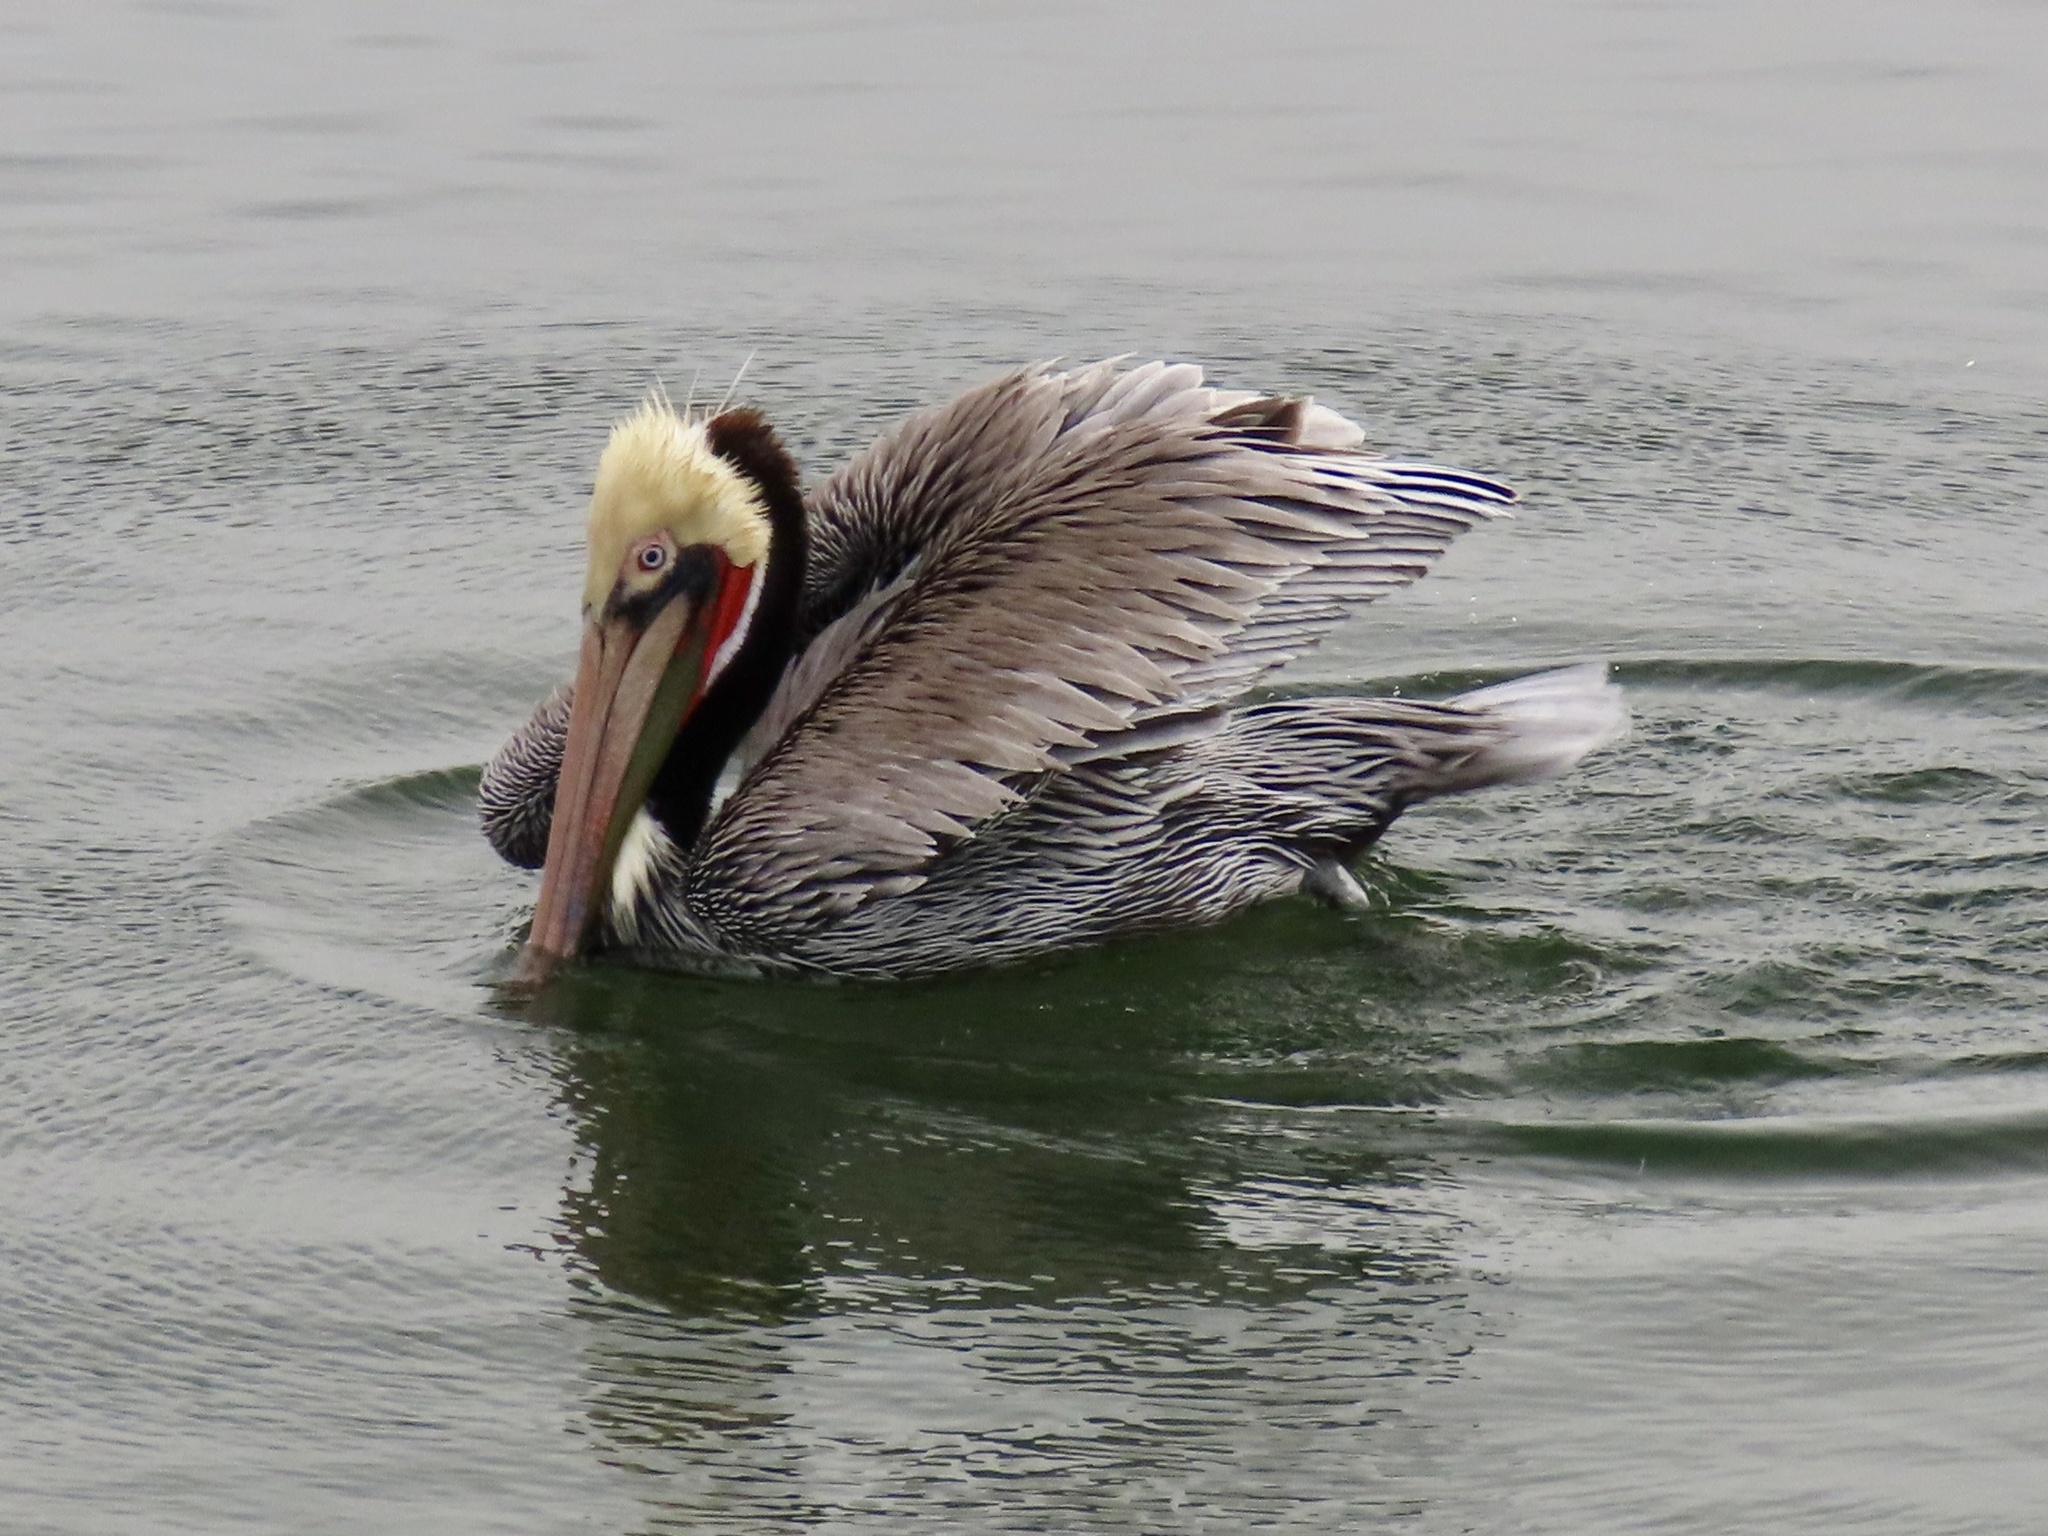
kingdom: Animalia
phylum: Chordata
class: Aves
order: Pelecaniformes
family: Pelecanidae
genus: Pelecanus
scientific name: Pelecanus occidentalis
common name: Brown pelican
